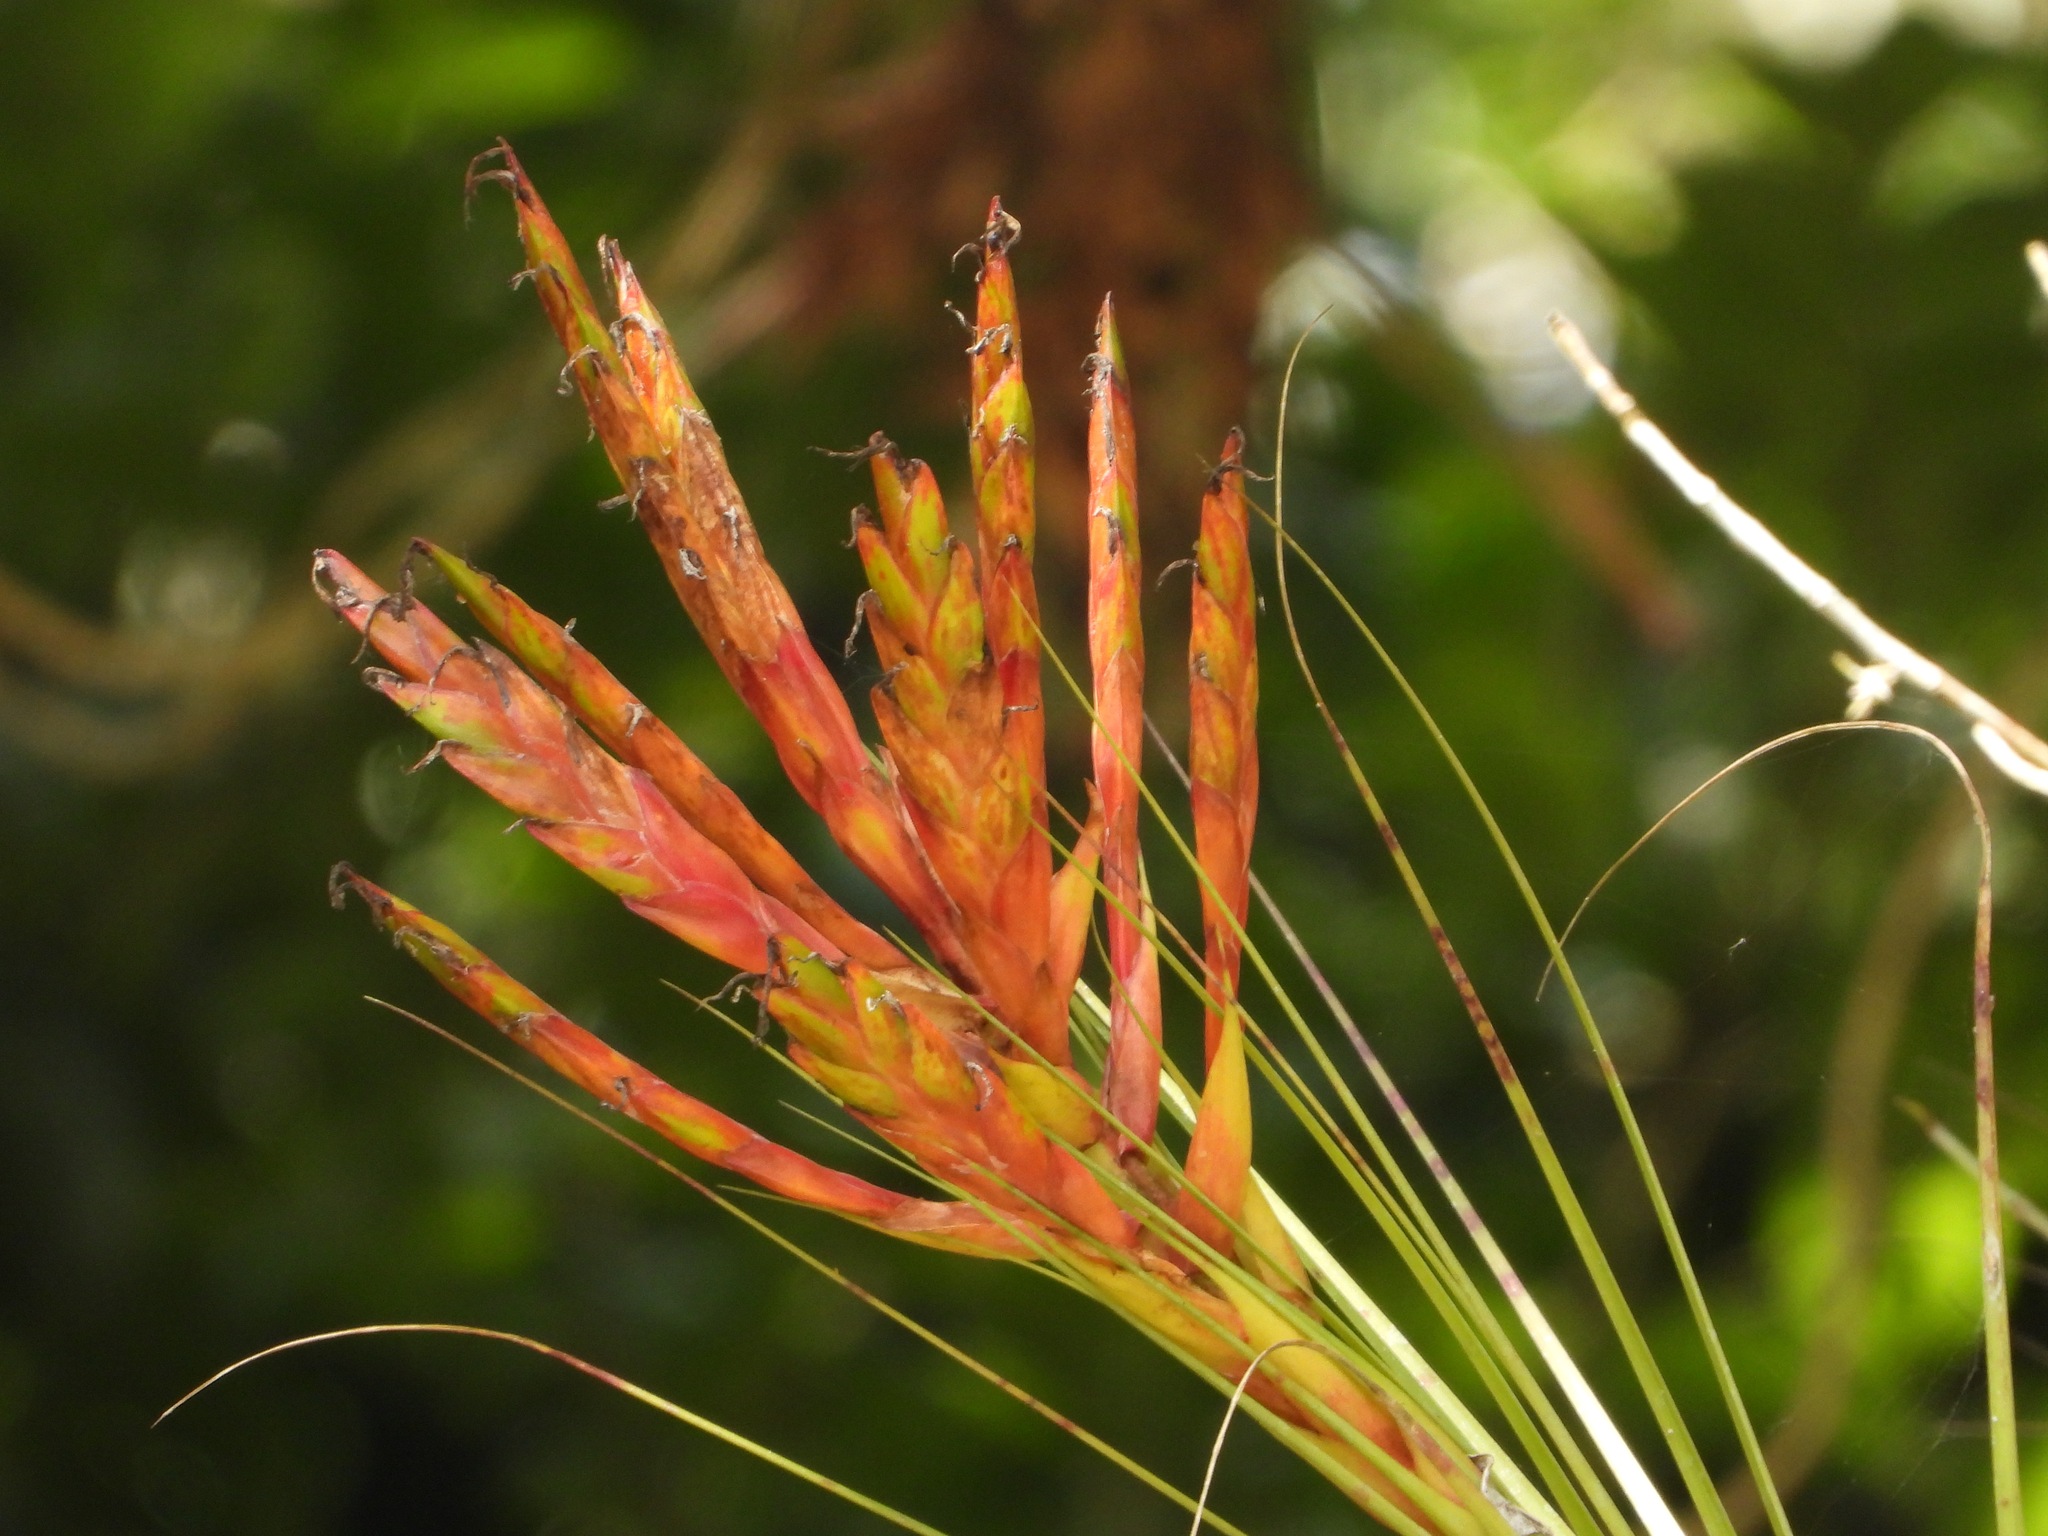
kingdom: Plantae
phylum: Tracheophyta
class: Liliopsida
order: Poales
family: Bromeliaceae
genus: Tillandsia
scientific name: Tillandsia fasciculata
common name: Giant airplant
